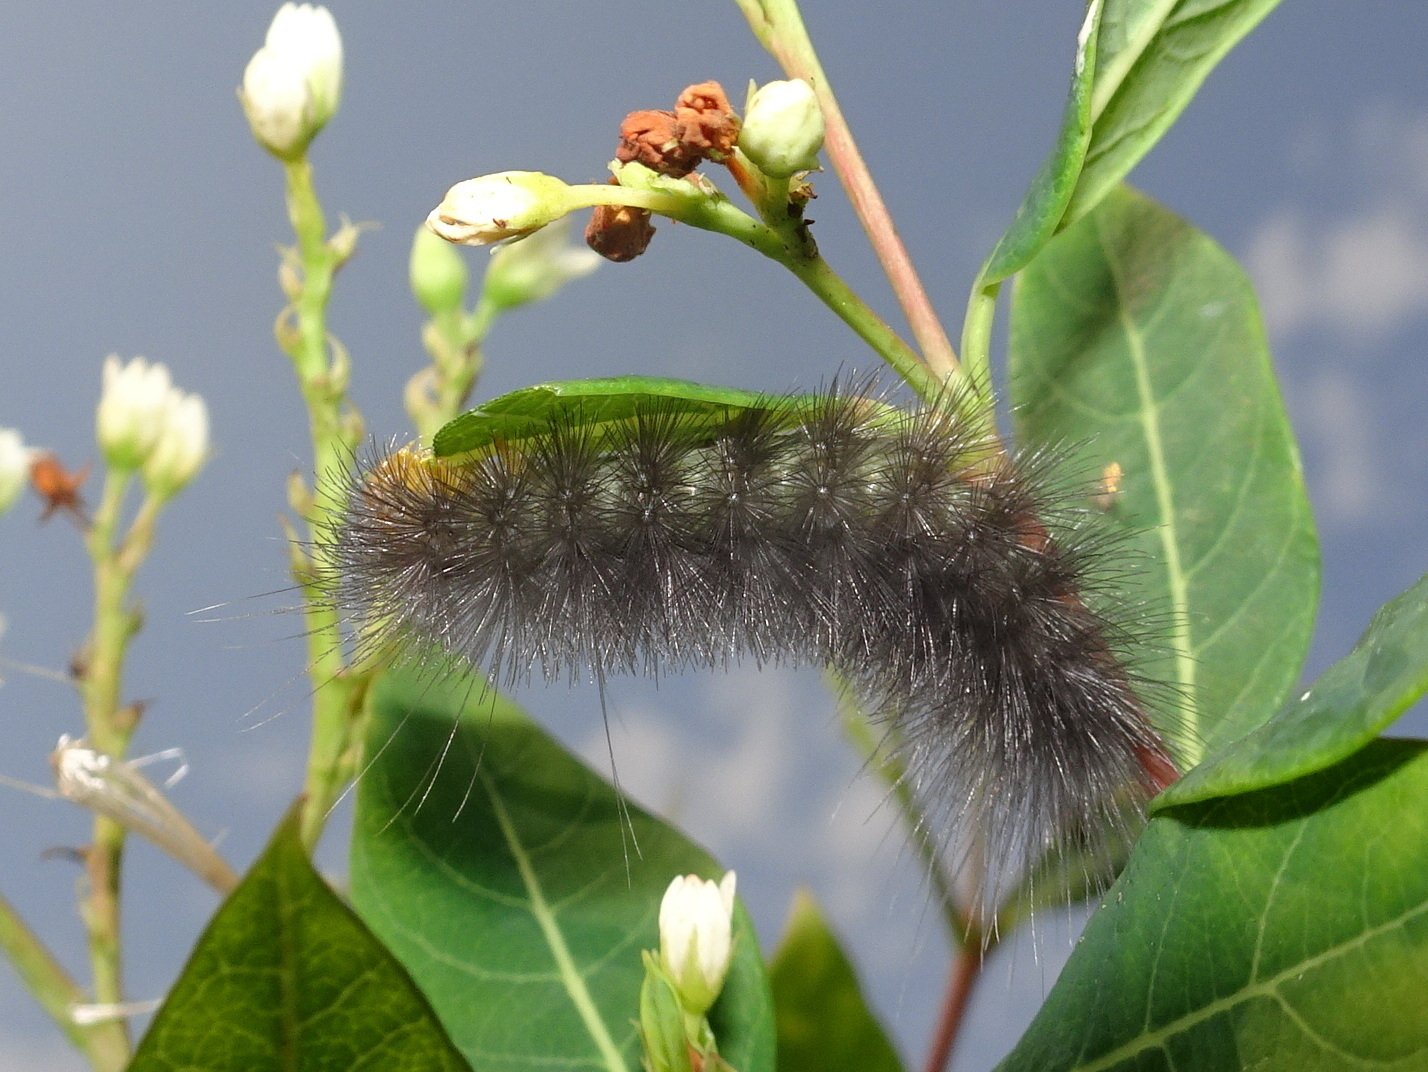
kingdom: Animalia
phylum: Arthropoda
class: Insecta
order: Lepidoptera
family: Erebidae
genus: Cycnia
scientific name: Cycnia tenera
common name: Delicate cycnia moth
